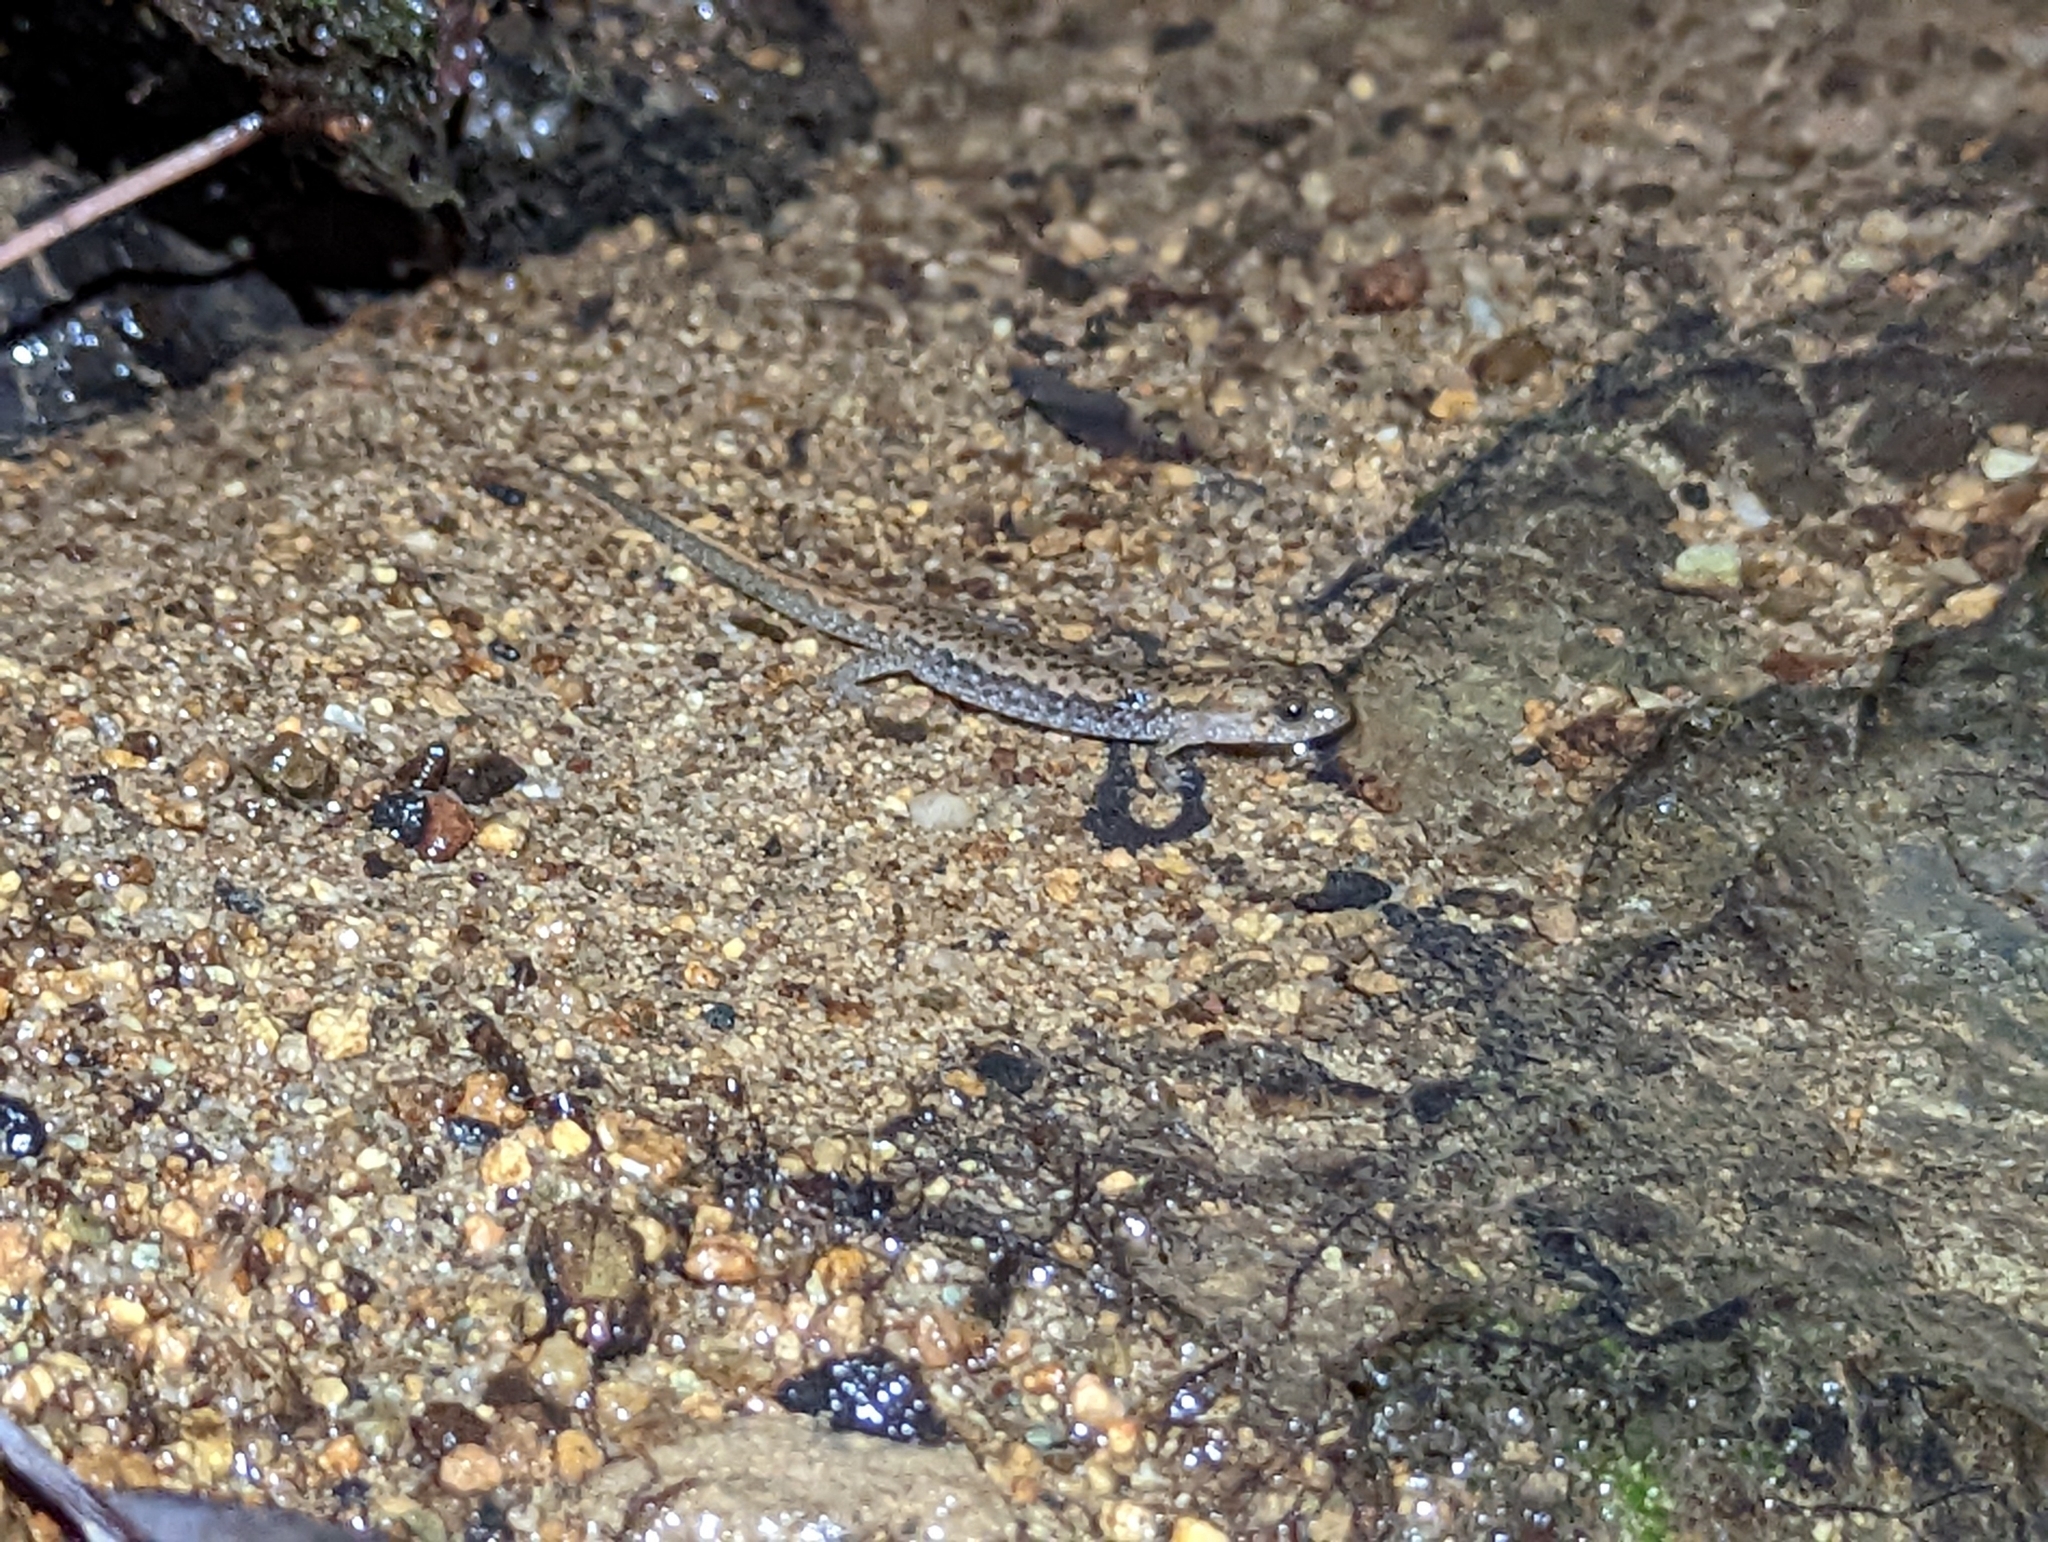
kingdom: Animalia
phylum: Chordata
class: Amphibia
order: Caudata
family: Plethodontidae
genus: Desmognathus
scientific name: Desmognathus
